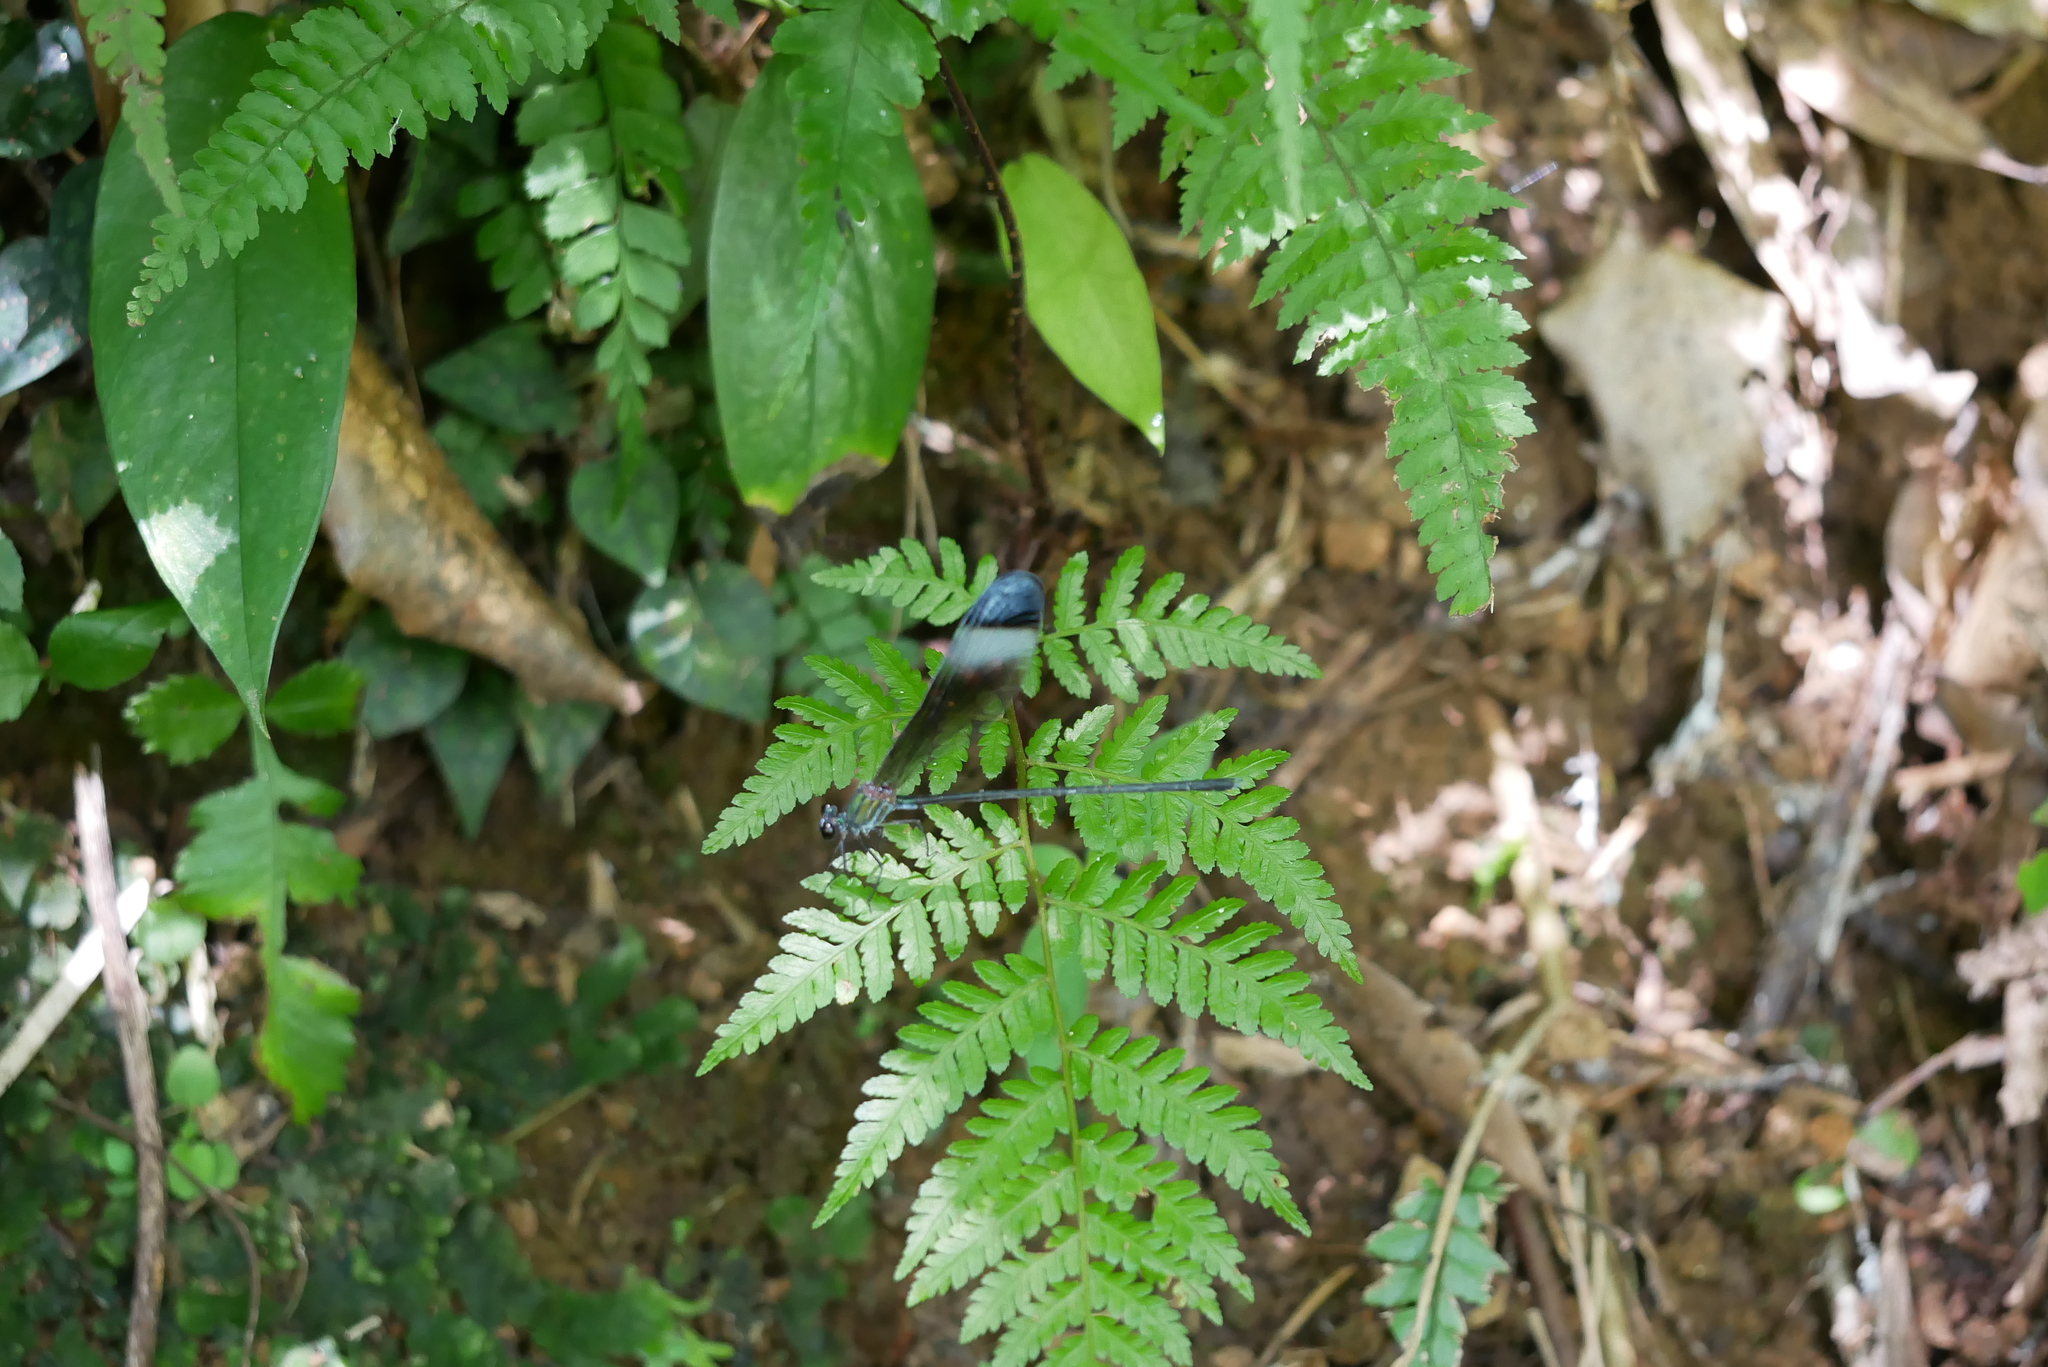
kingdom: Animalia
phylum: Arthropoda
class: Insecta
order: Odonata
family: Calopterygidae
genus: Psolodesmus
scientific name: Psolodesmus mandarinus
